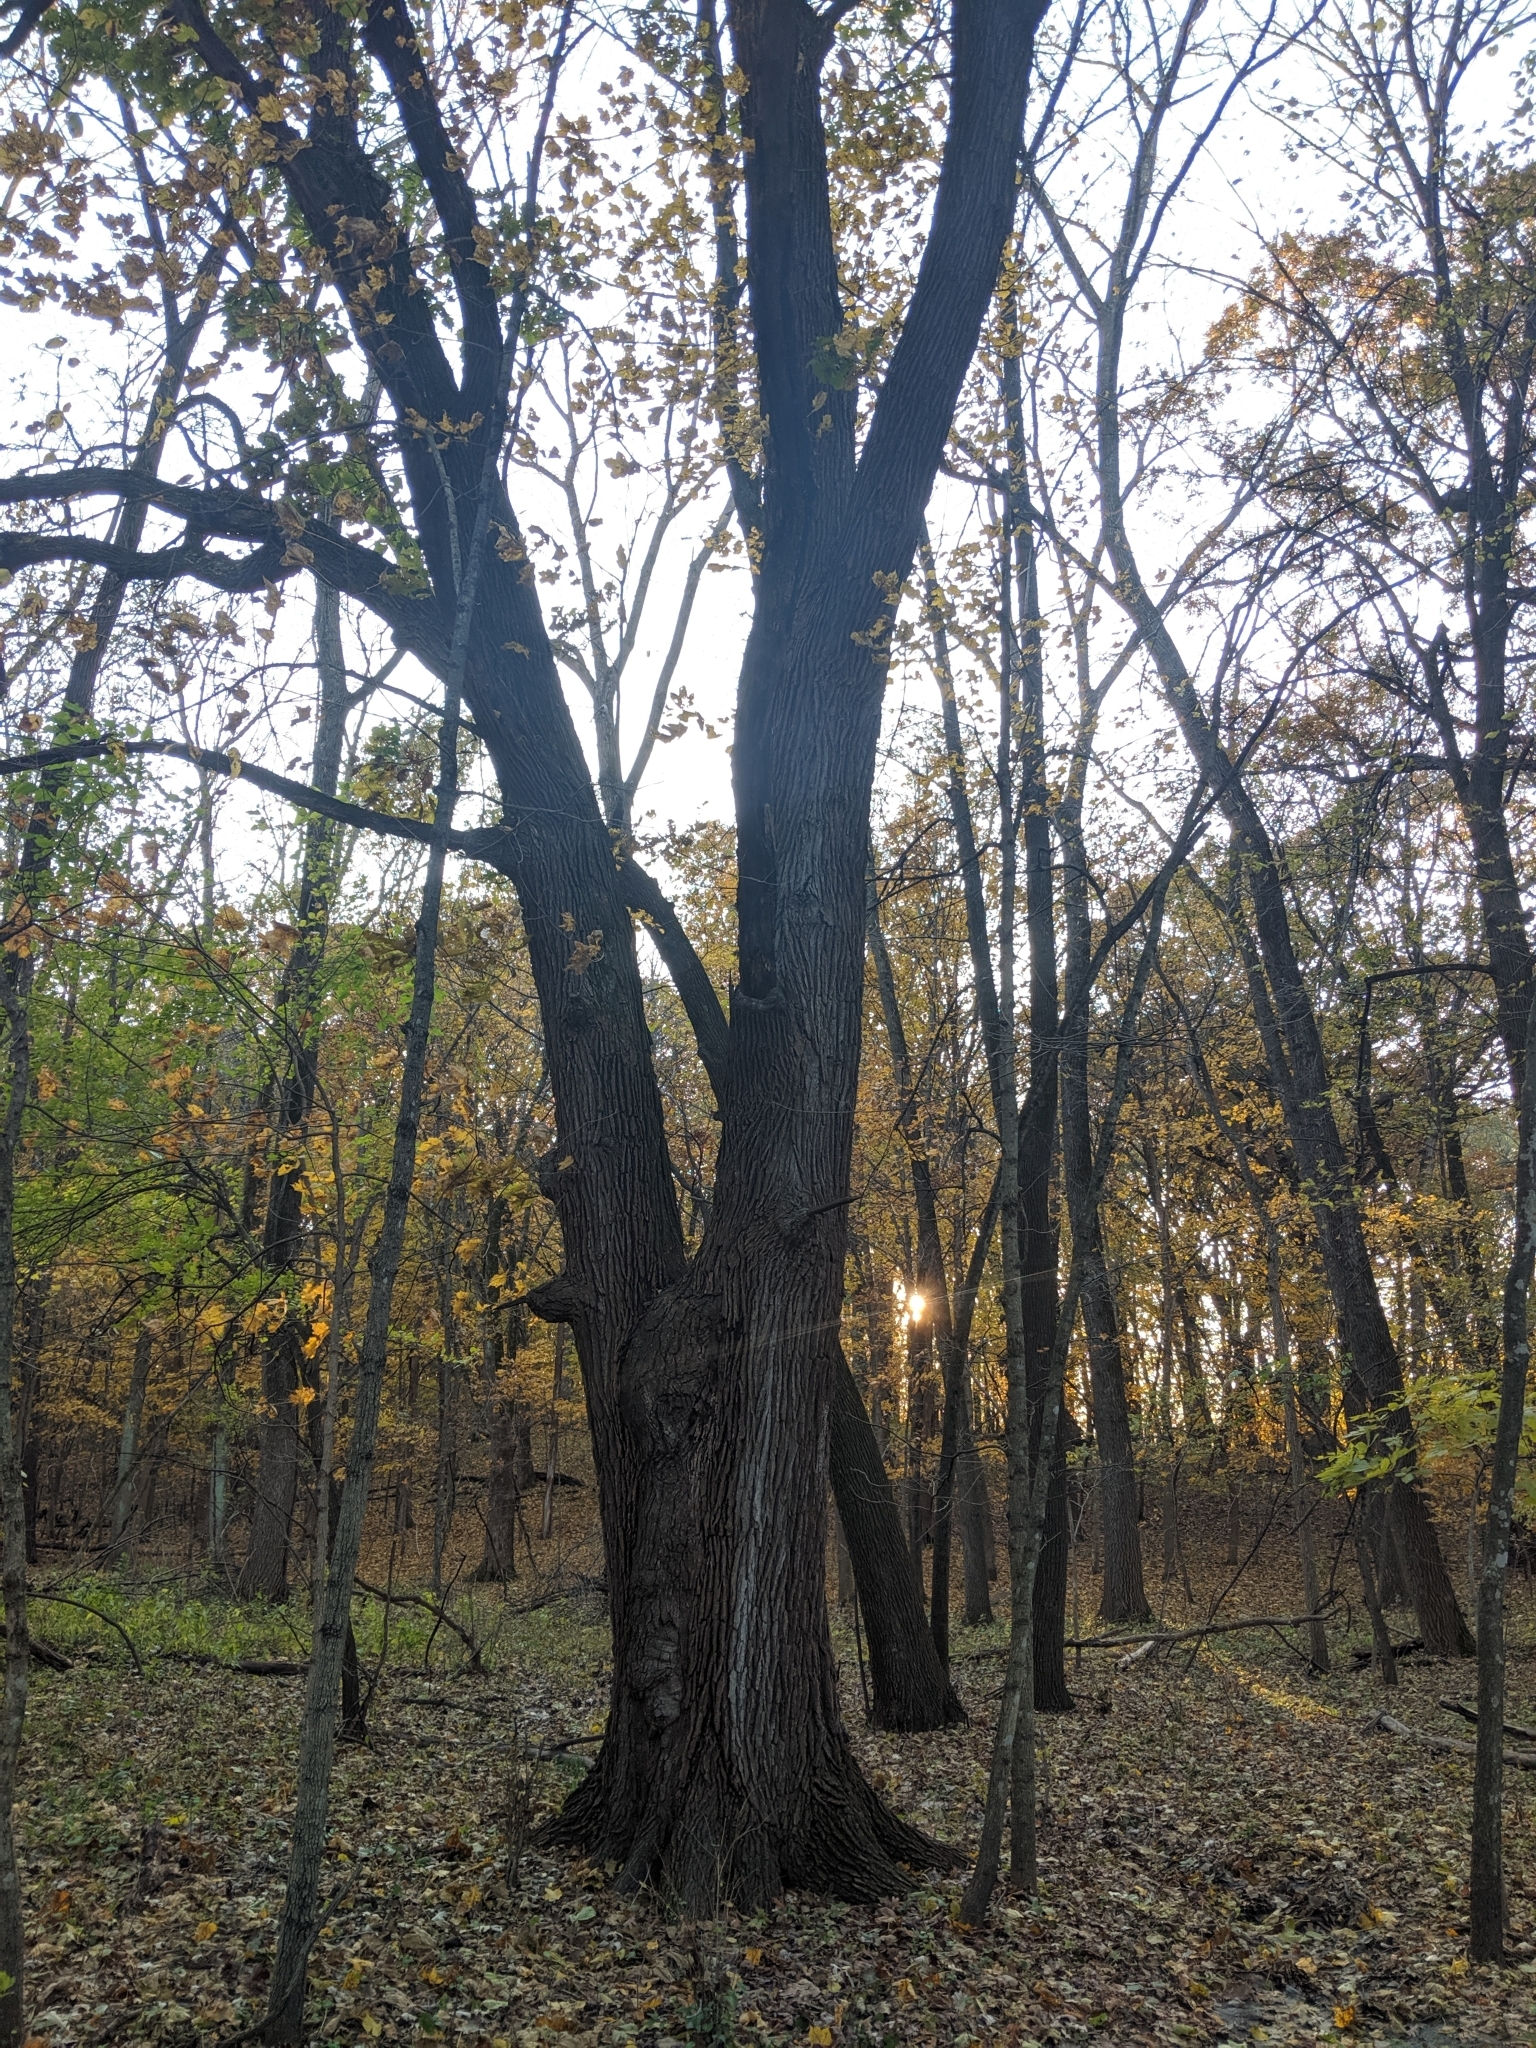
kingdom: Plantae
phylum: Tracheophyta
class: Magnoliopsida
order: Fagales
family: Fagaceae
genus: Quercus
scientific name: Quercus macrocarpa
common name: Bur oak
